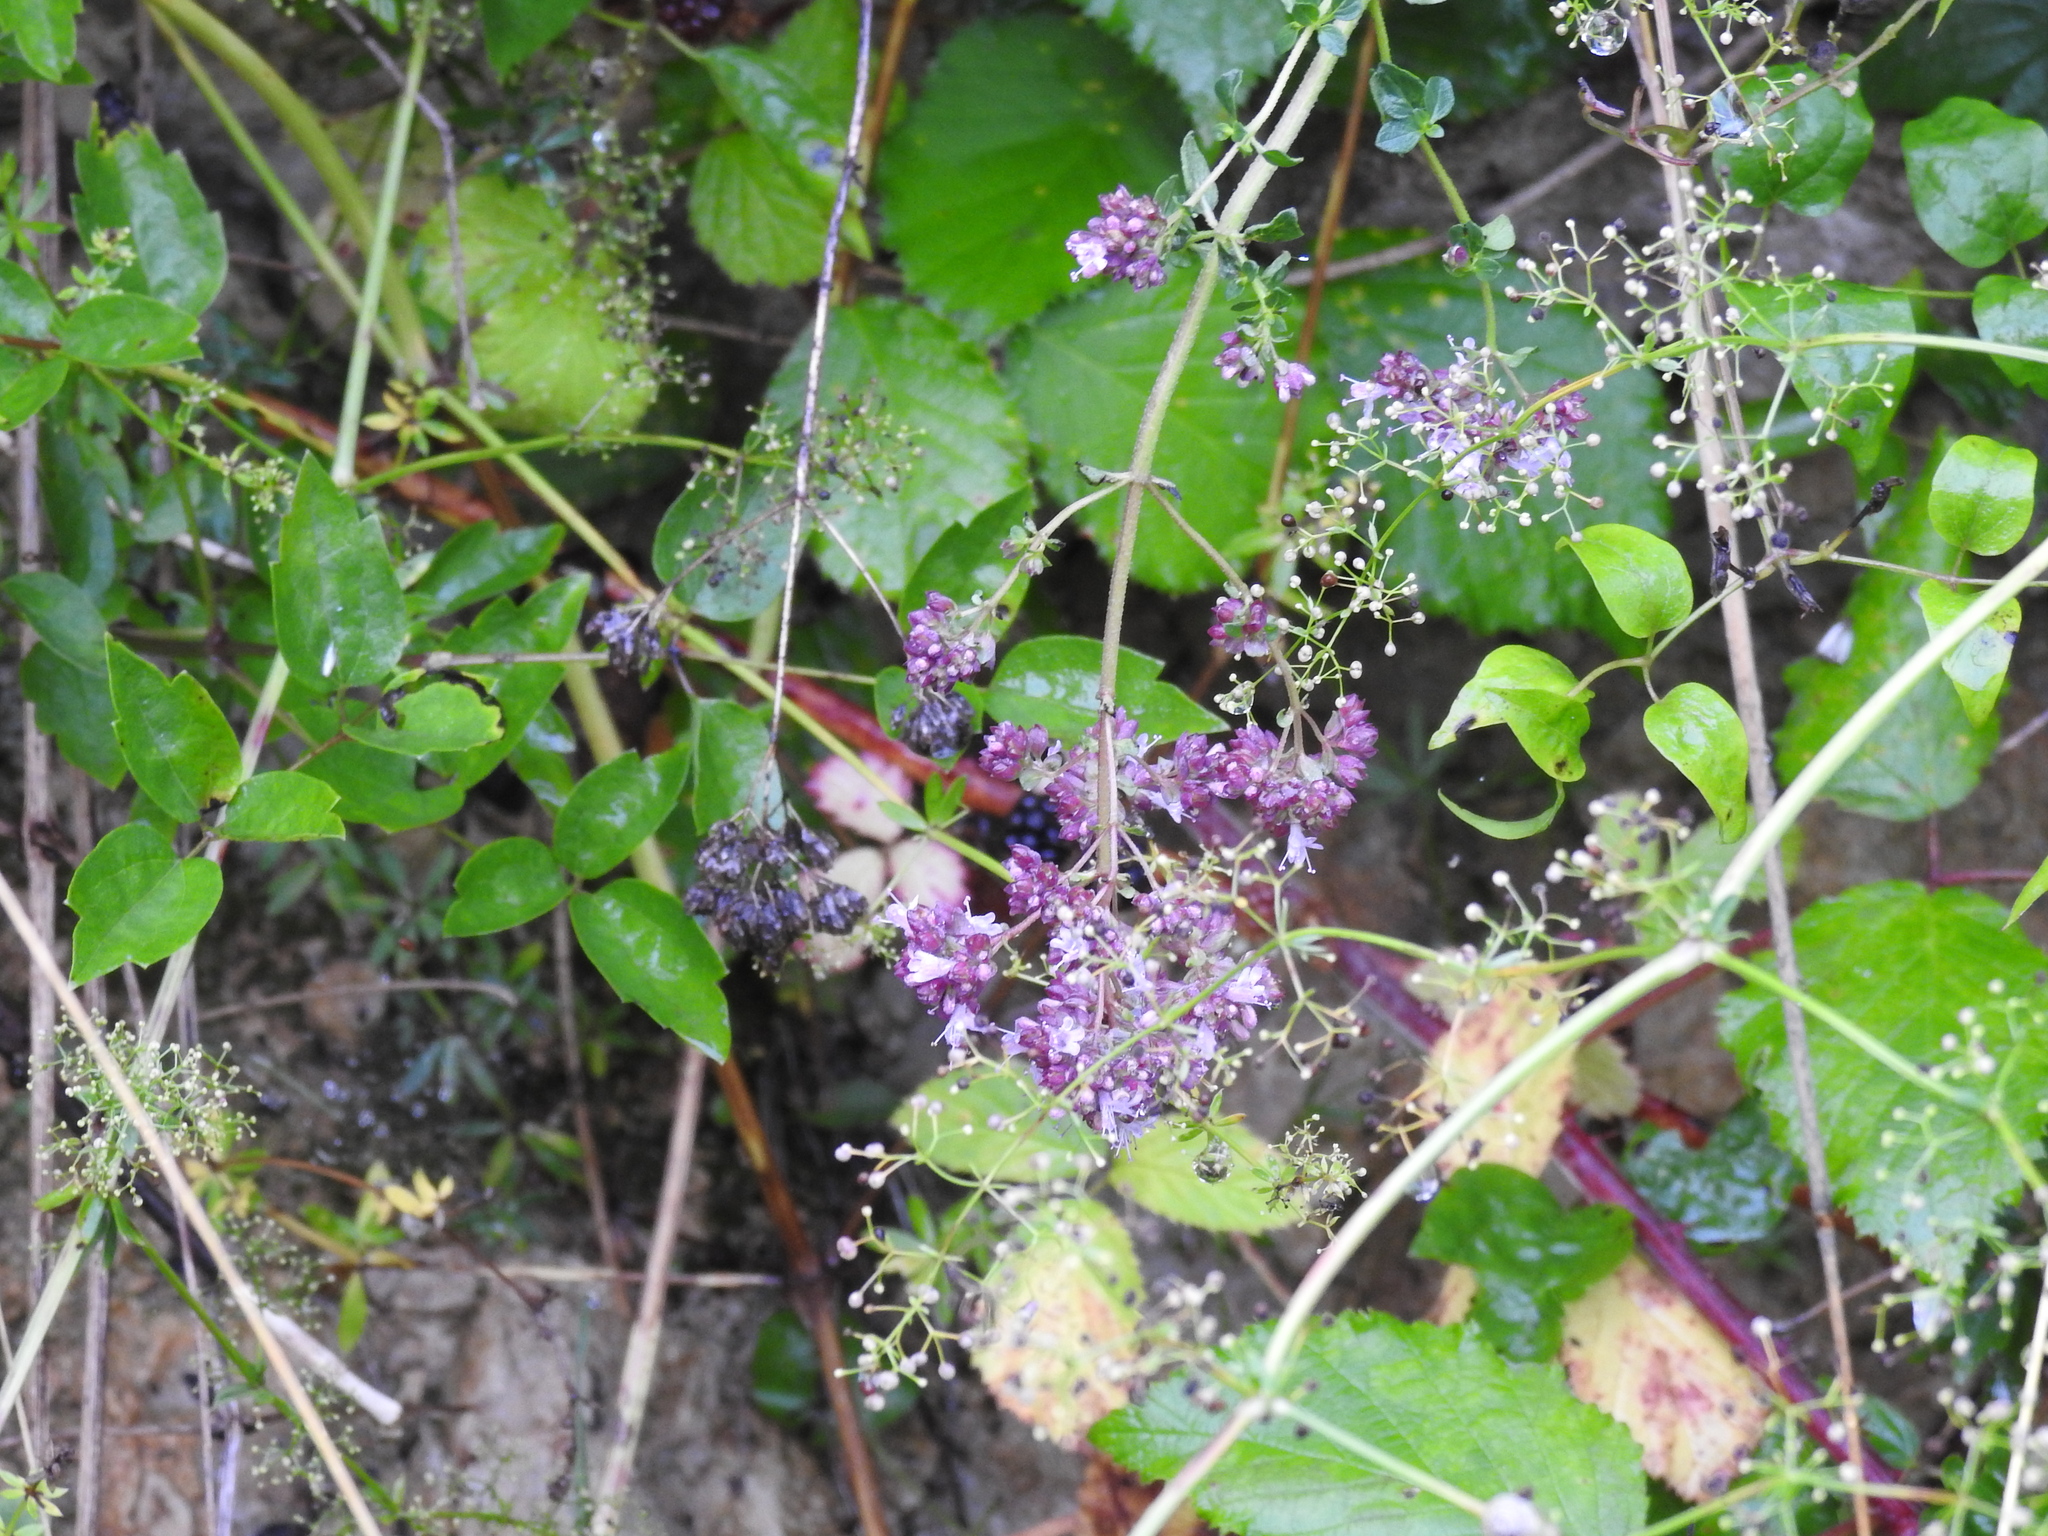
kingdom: Plantae
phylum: Tracheophyta
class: Magnoliopsida
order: Lamiales
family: Lamiaceae
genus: Origanum
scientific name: Origanum vulgare
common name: Wild marjoram
